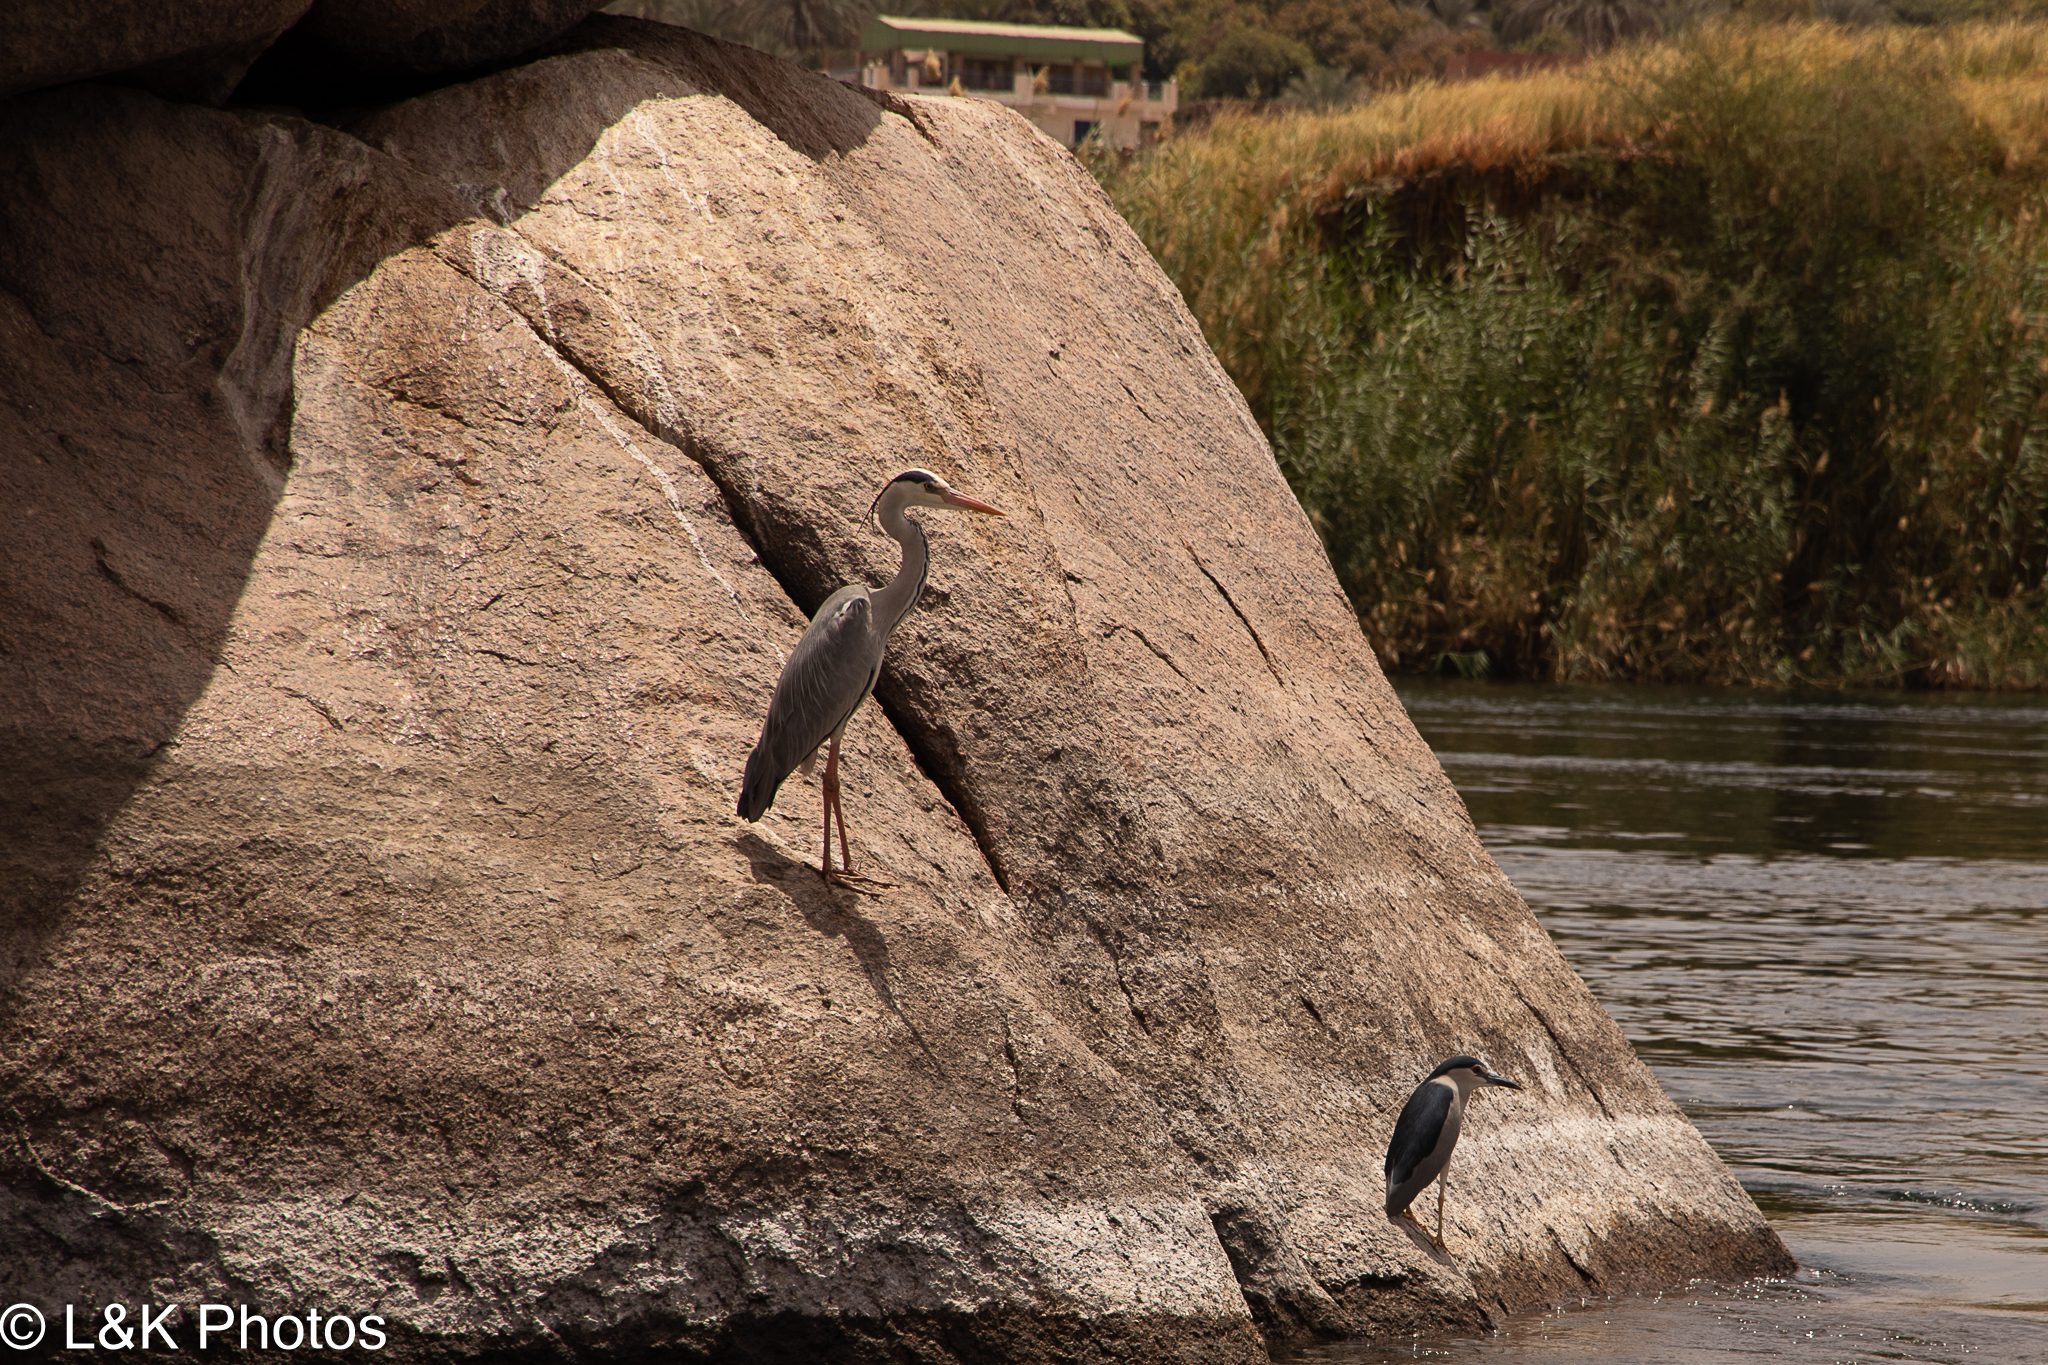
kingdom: Animalia
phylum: Chordata
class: Aves
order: Pelecaniformes
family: Ardeidae
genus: Ardea
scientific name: Ardea cinerea
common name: Grey heron
